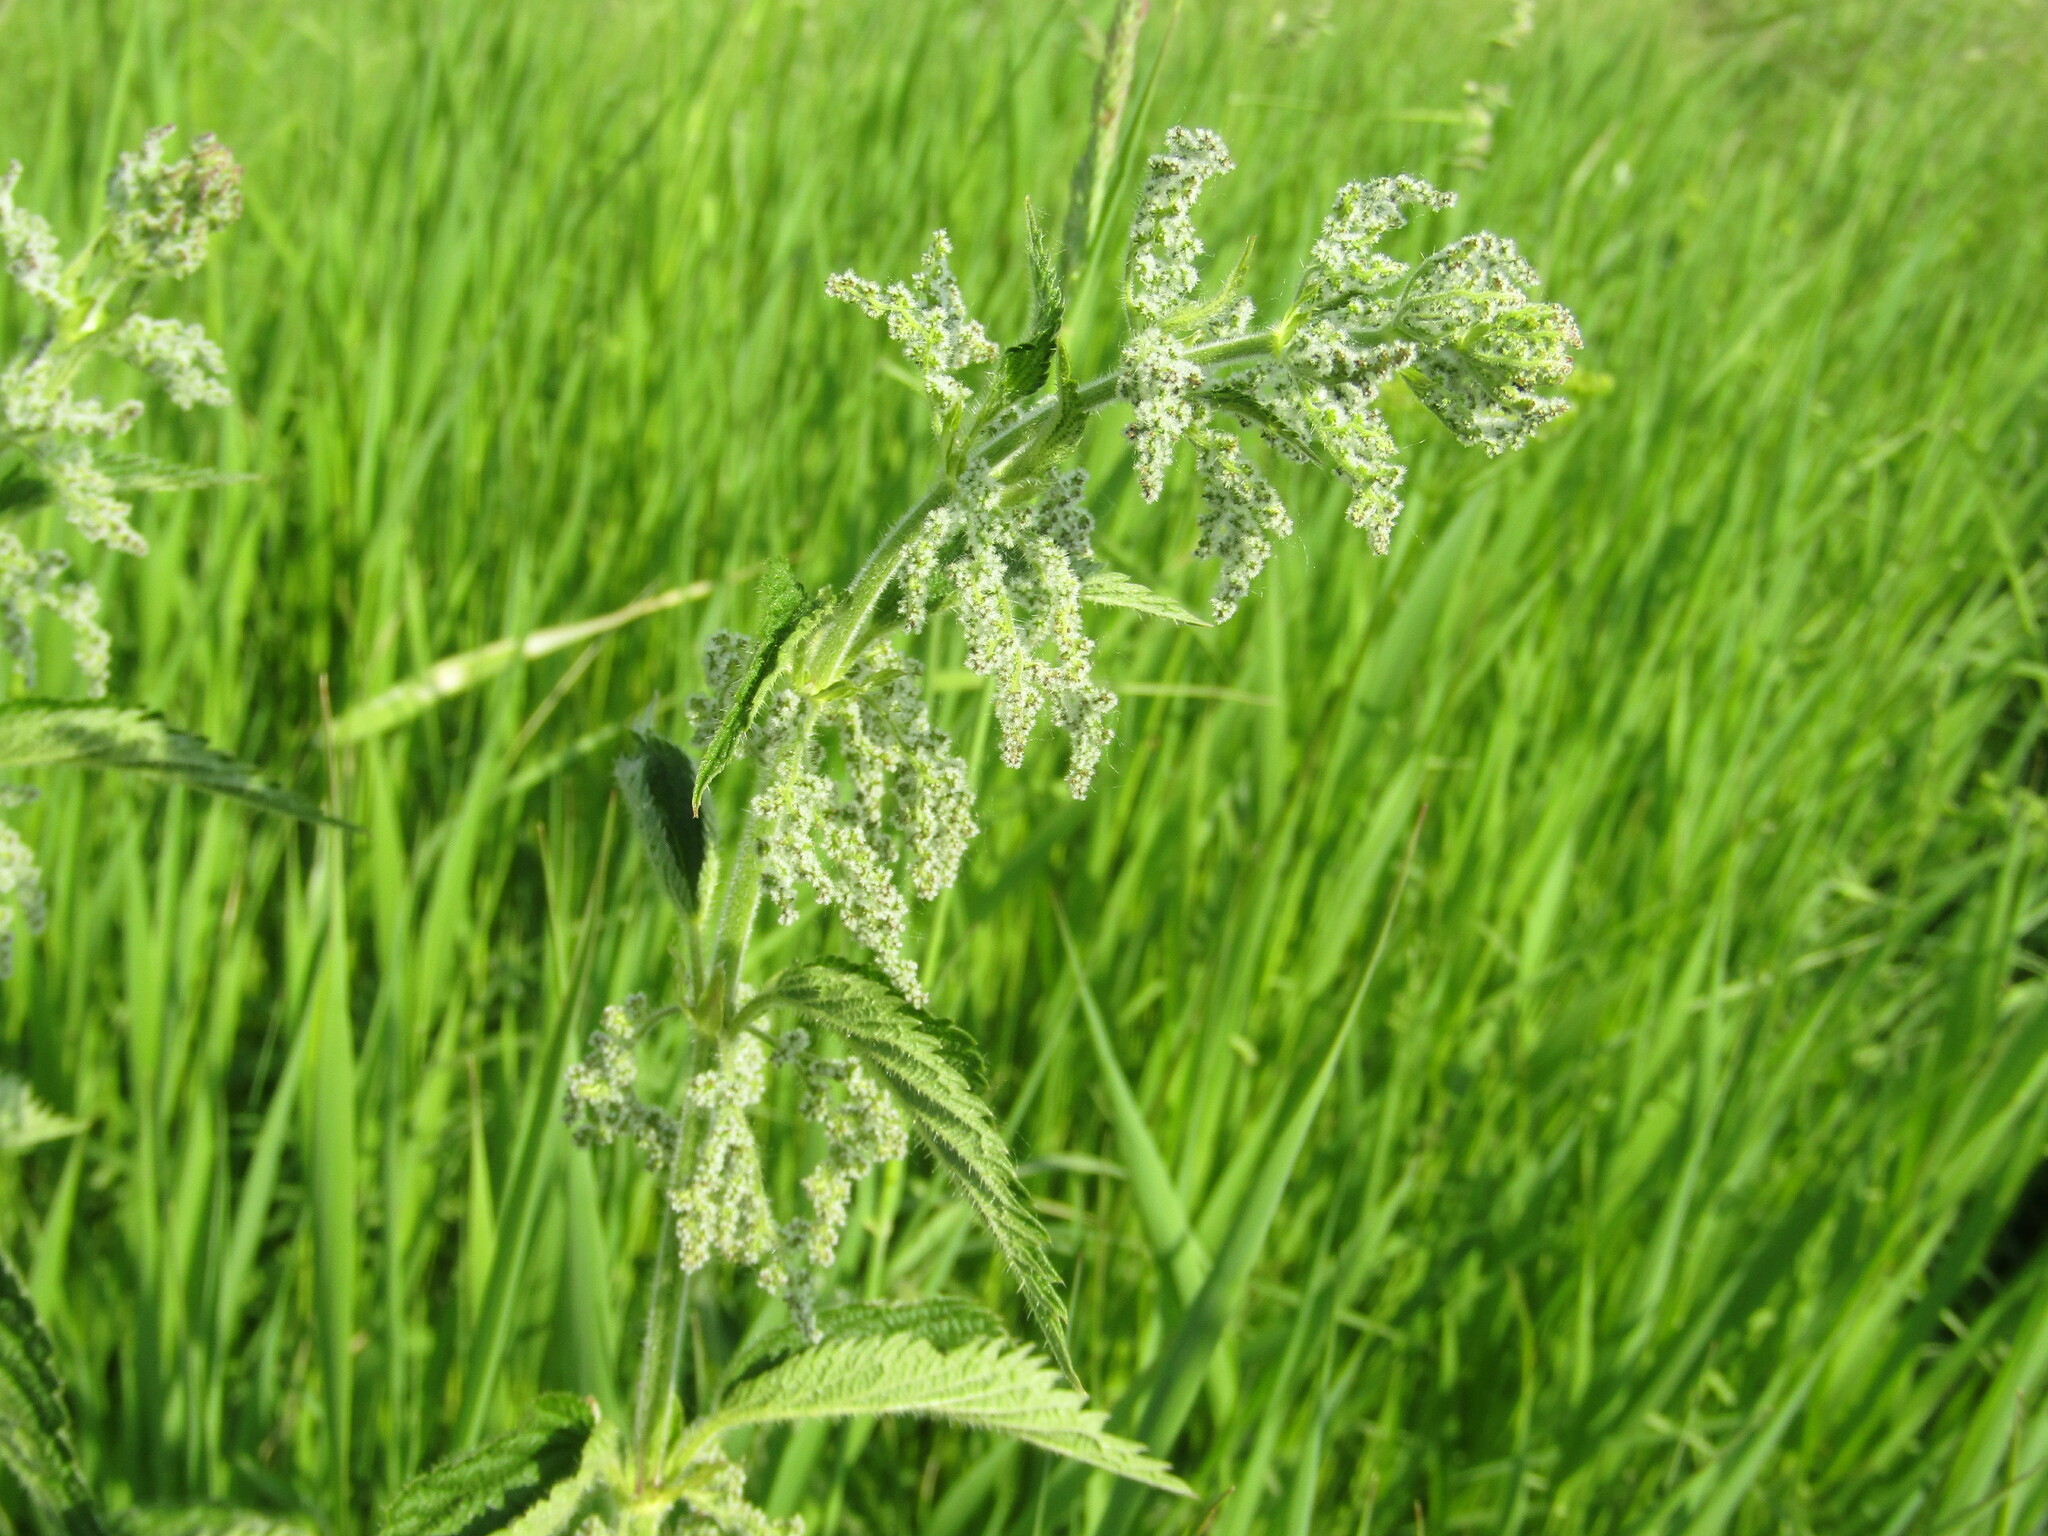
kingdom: Plantae
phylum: Tracheophyta
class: Magnoliopsida
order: Rosales
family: Urticaceae
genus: Urtica
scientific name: Urtica dioica
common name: Common nettle
